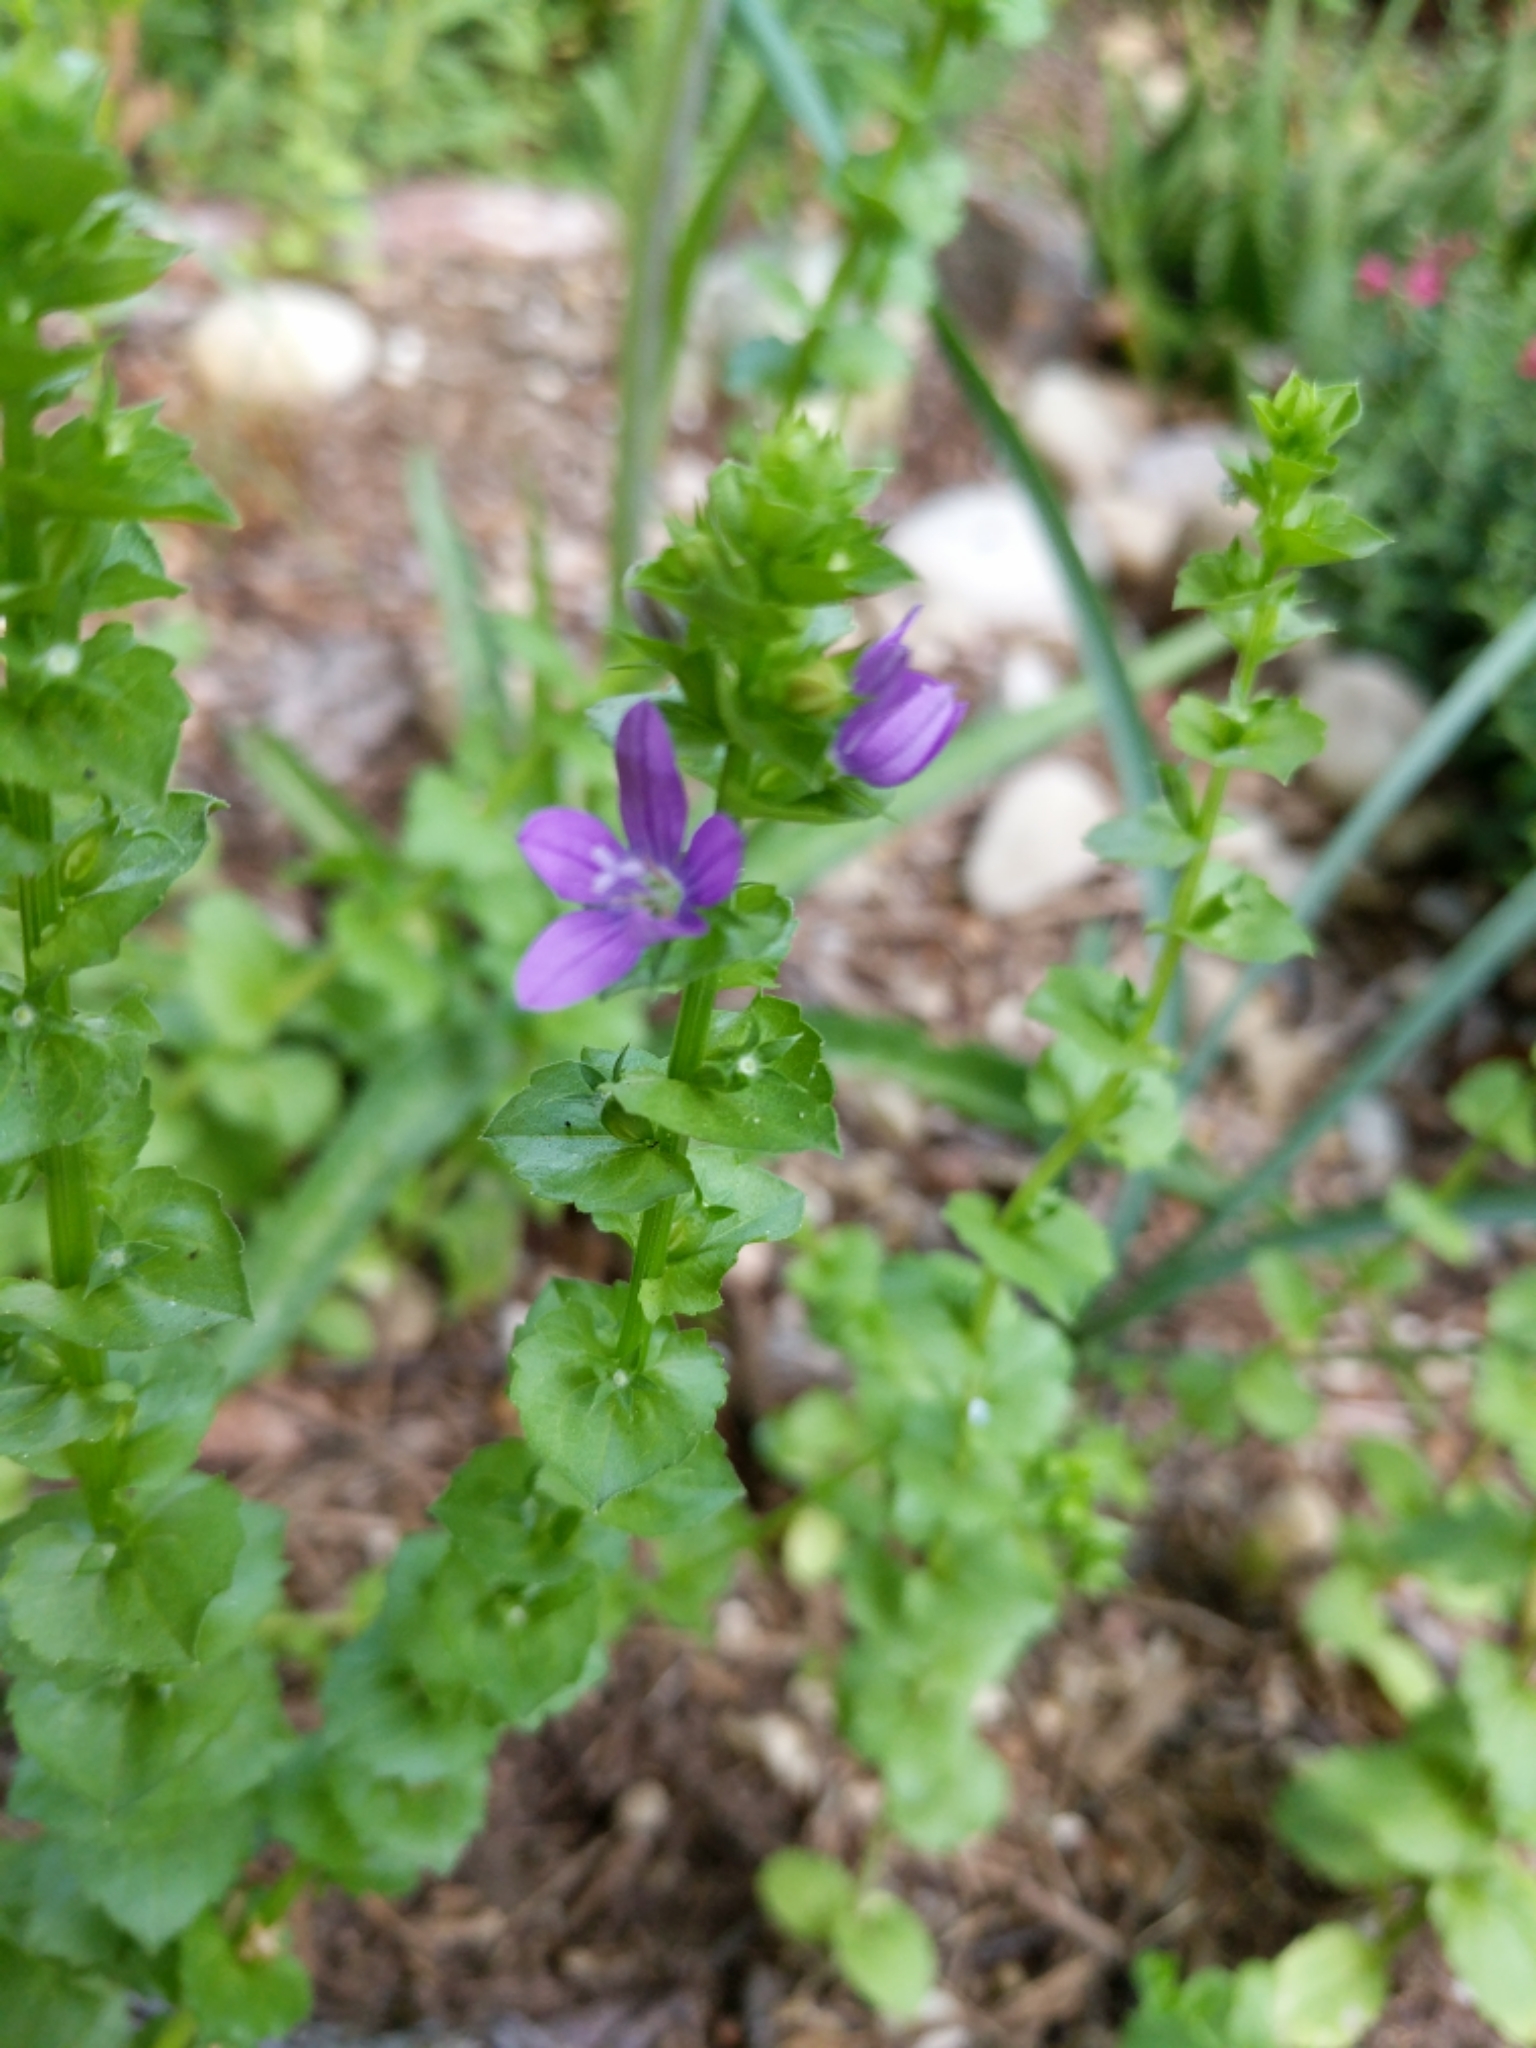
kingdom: Plantae
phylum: Tracheophyta
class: Magnoliopsida
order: Asterales
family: Campanulaceae
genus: Triodanis
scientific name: Triodanis perfoliata
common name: Clasping venus' looking-glass
